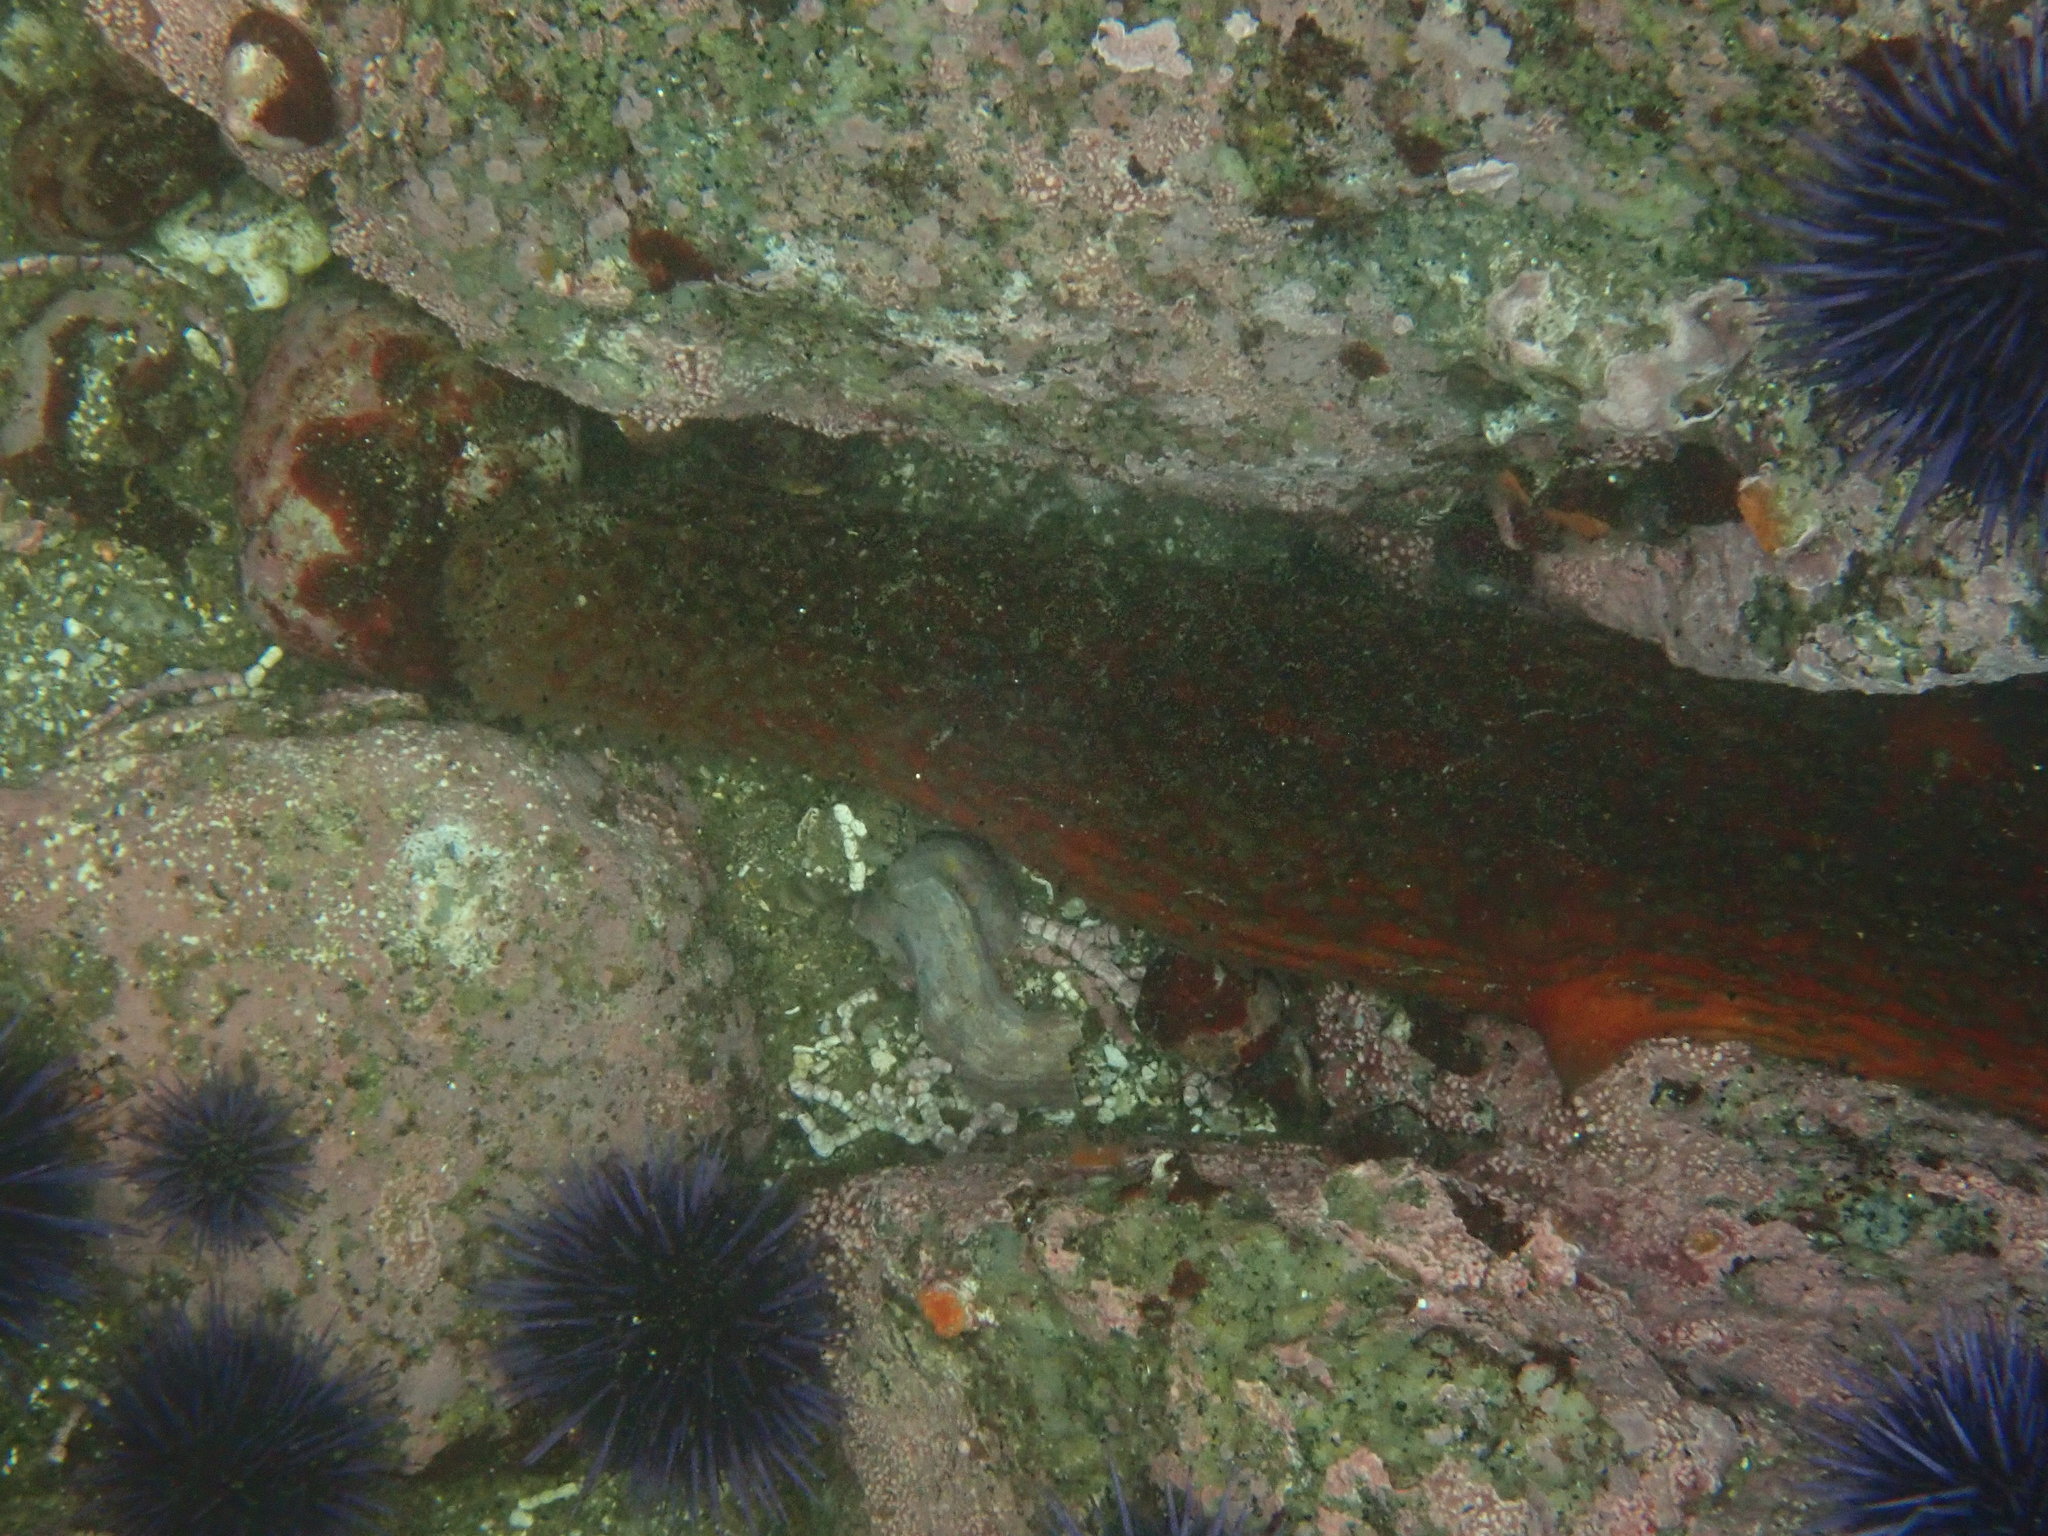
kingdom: Animalia
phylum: Echinodermata
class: Holothuroidea
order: Synallactida
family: Stichopodidae
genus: Apostichopus
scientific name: Apostichopus parvimensis
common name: Warty sea cucumber
